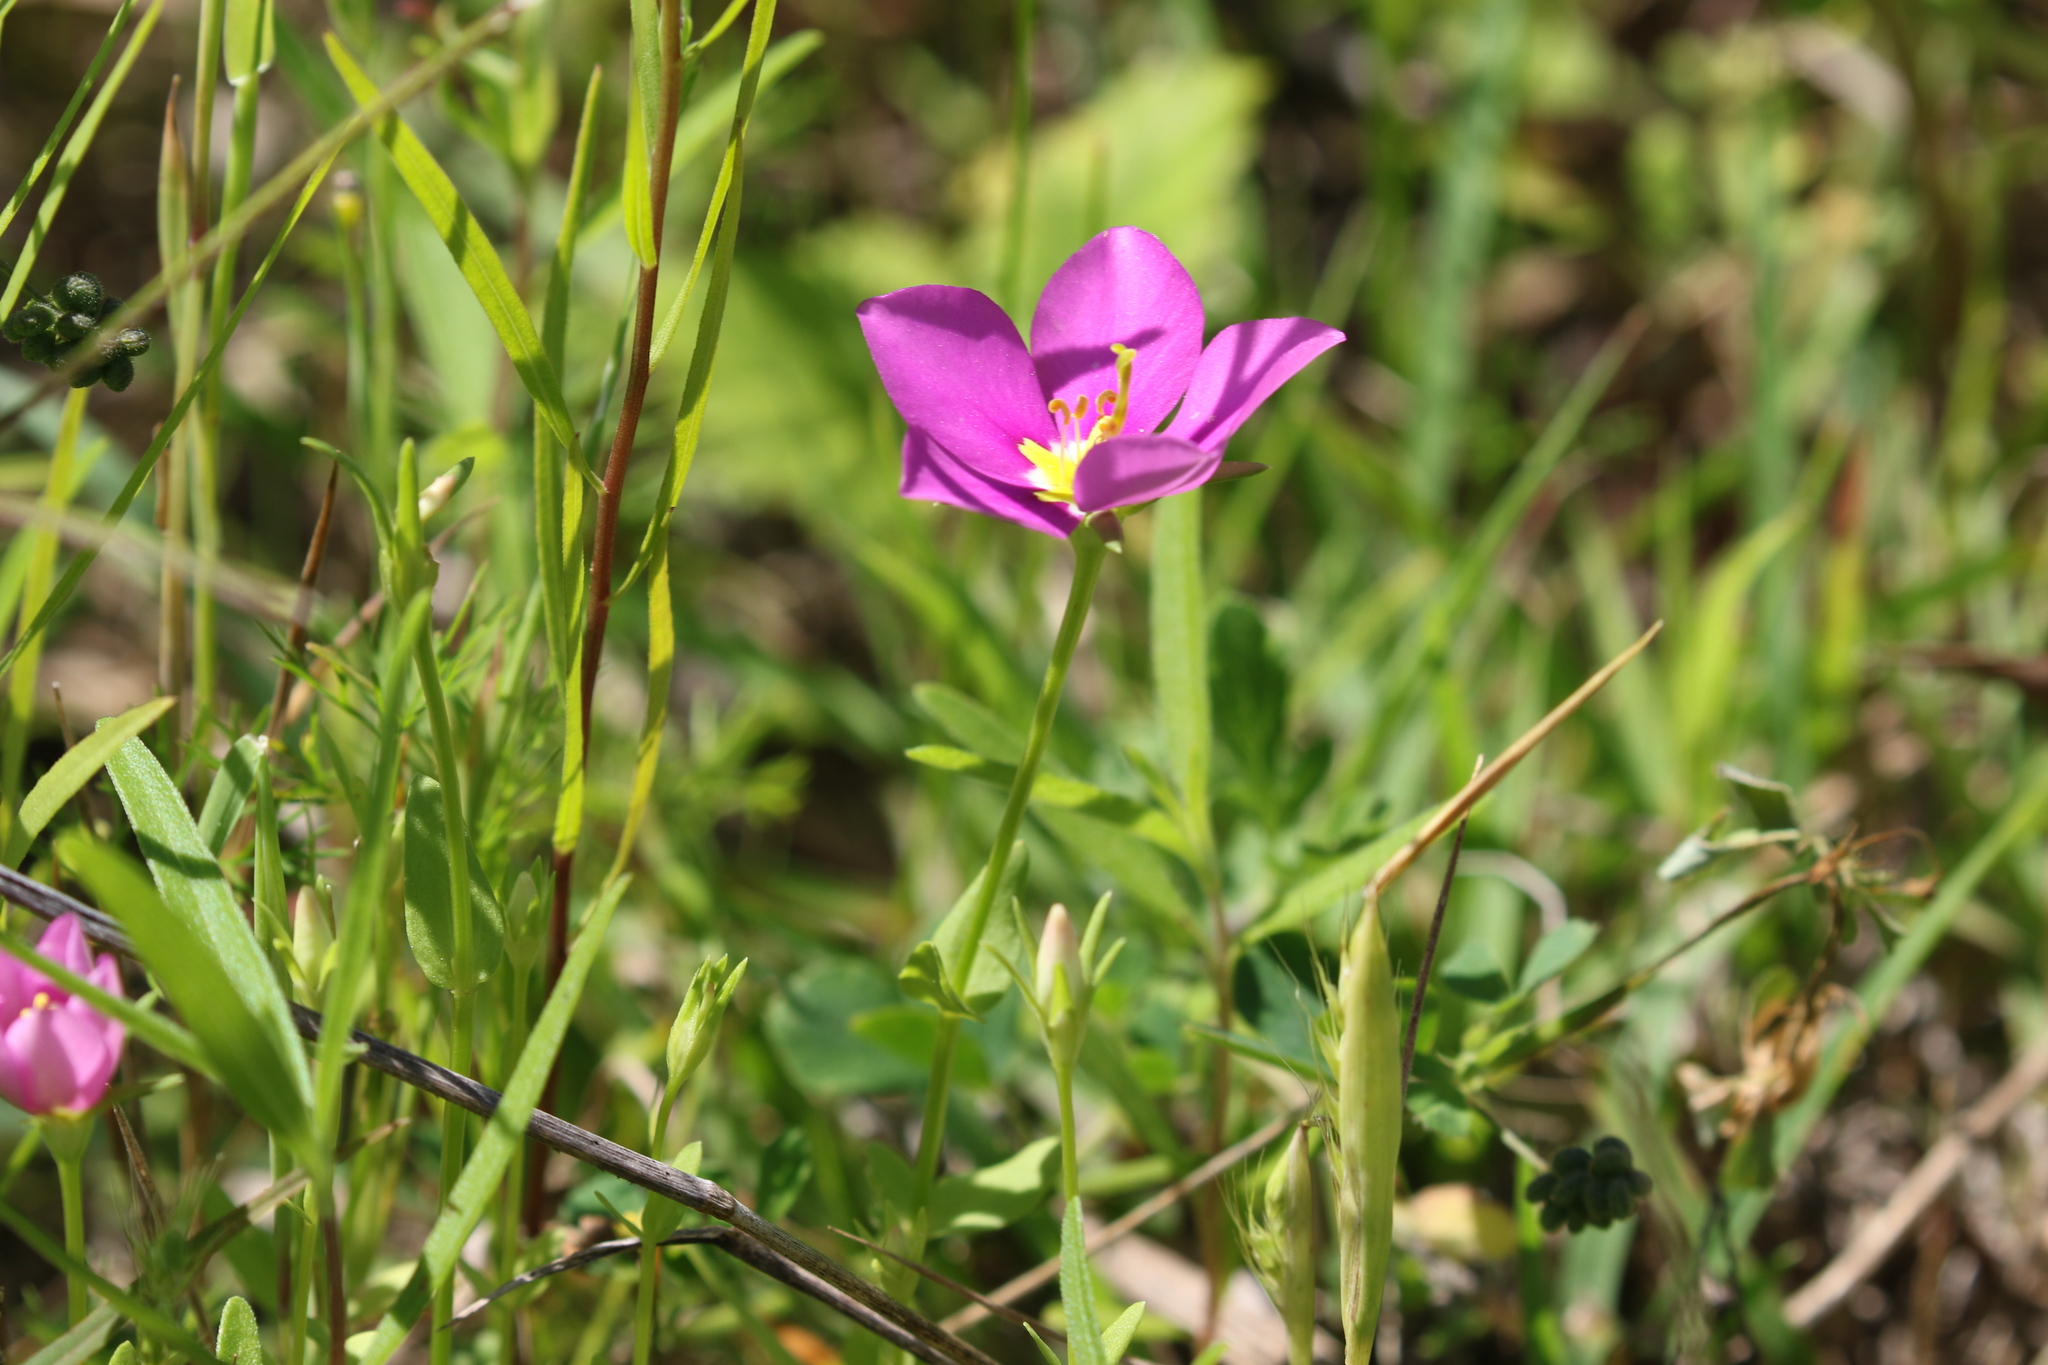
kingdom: Plantae
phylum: Tracheophyta
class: Magnoliopsida
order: Gentianales
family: Gentianaceae
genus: Sabatia
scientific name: Sabatia campestris
